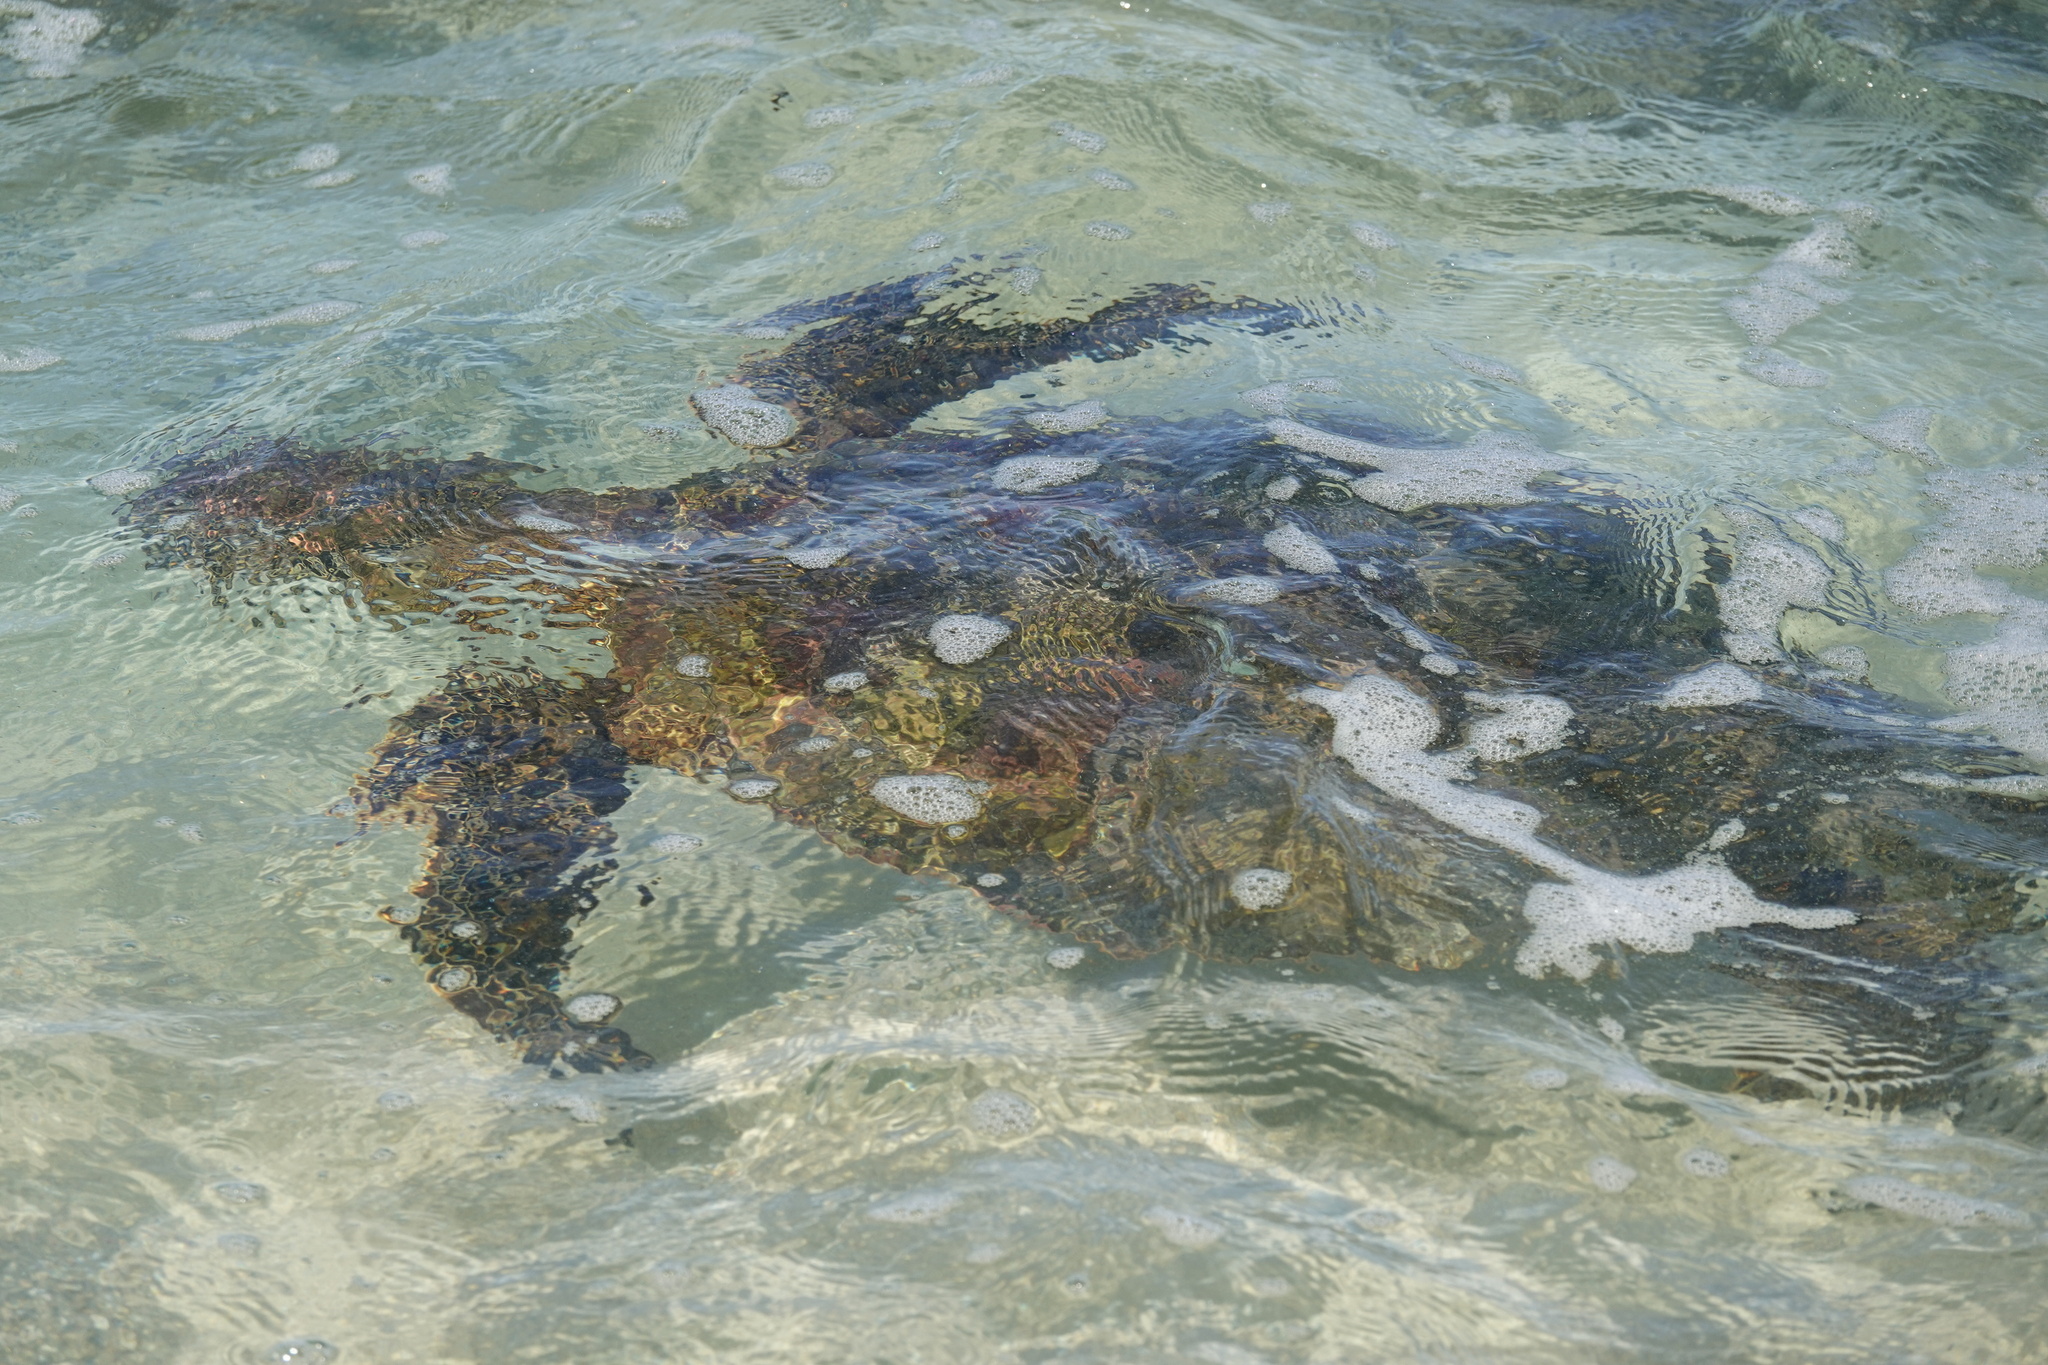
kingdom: Animalia
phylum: Chordata
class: Testudines
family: Cheloniidae
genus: Chelonia
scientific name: Chelonia mydas
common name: Green turtle
